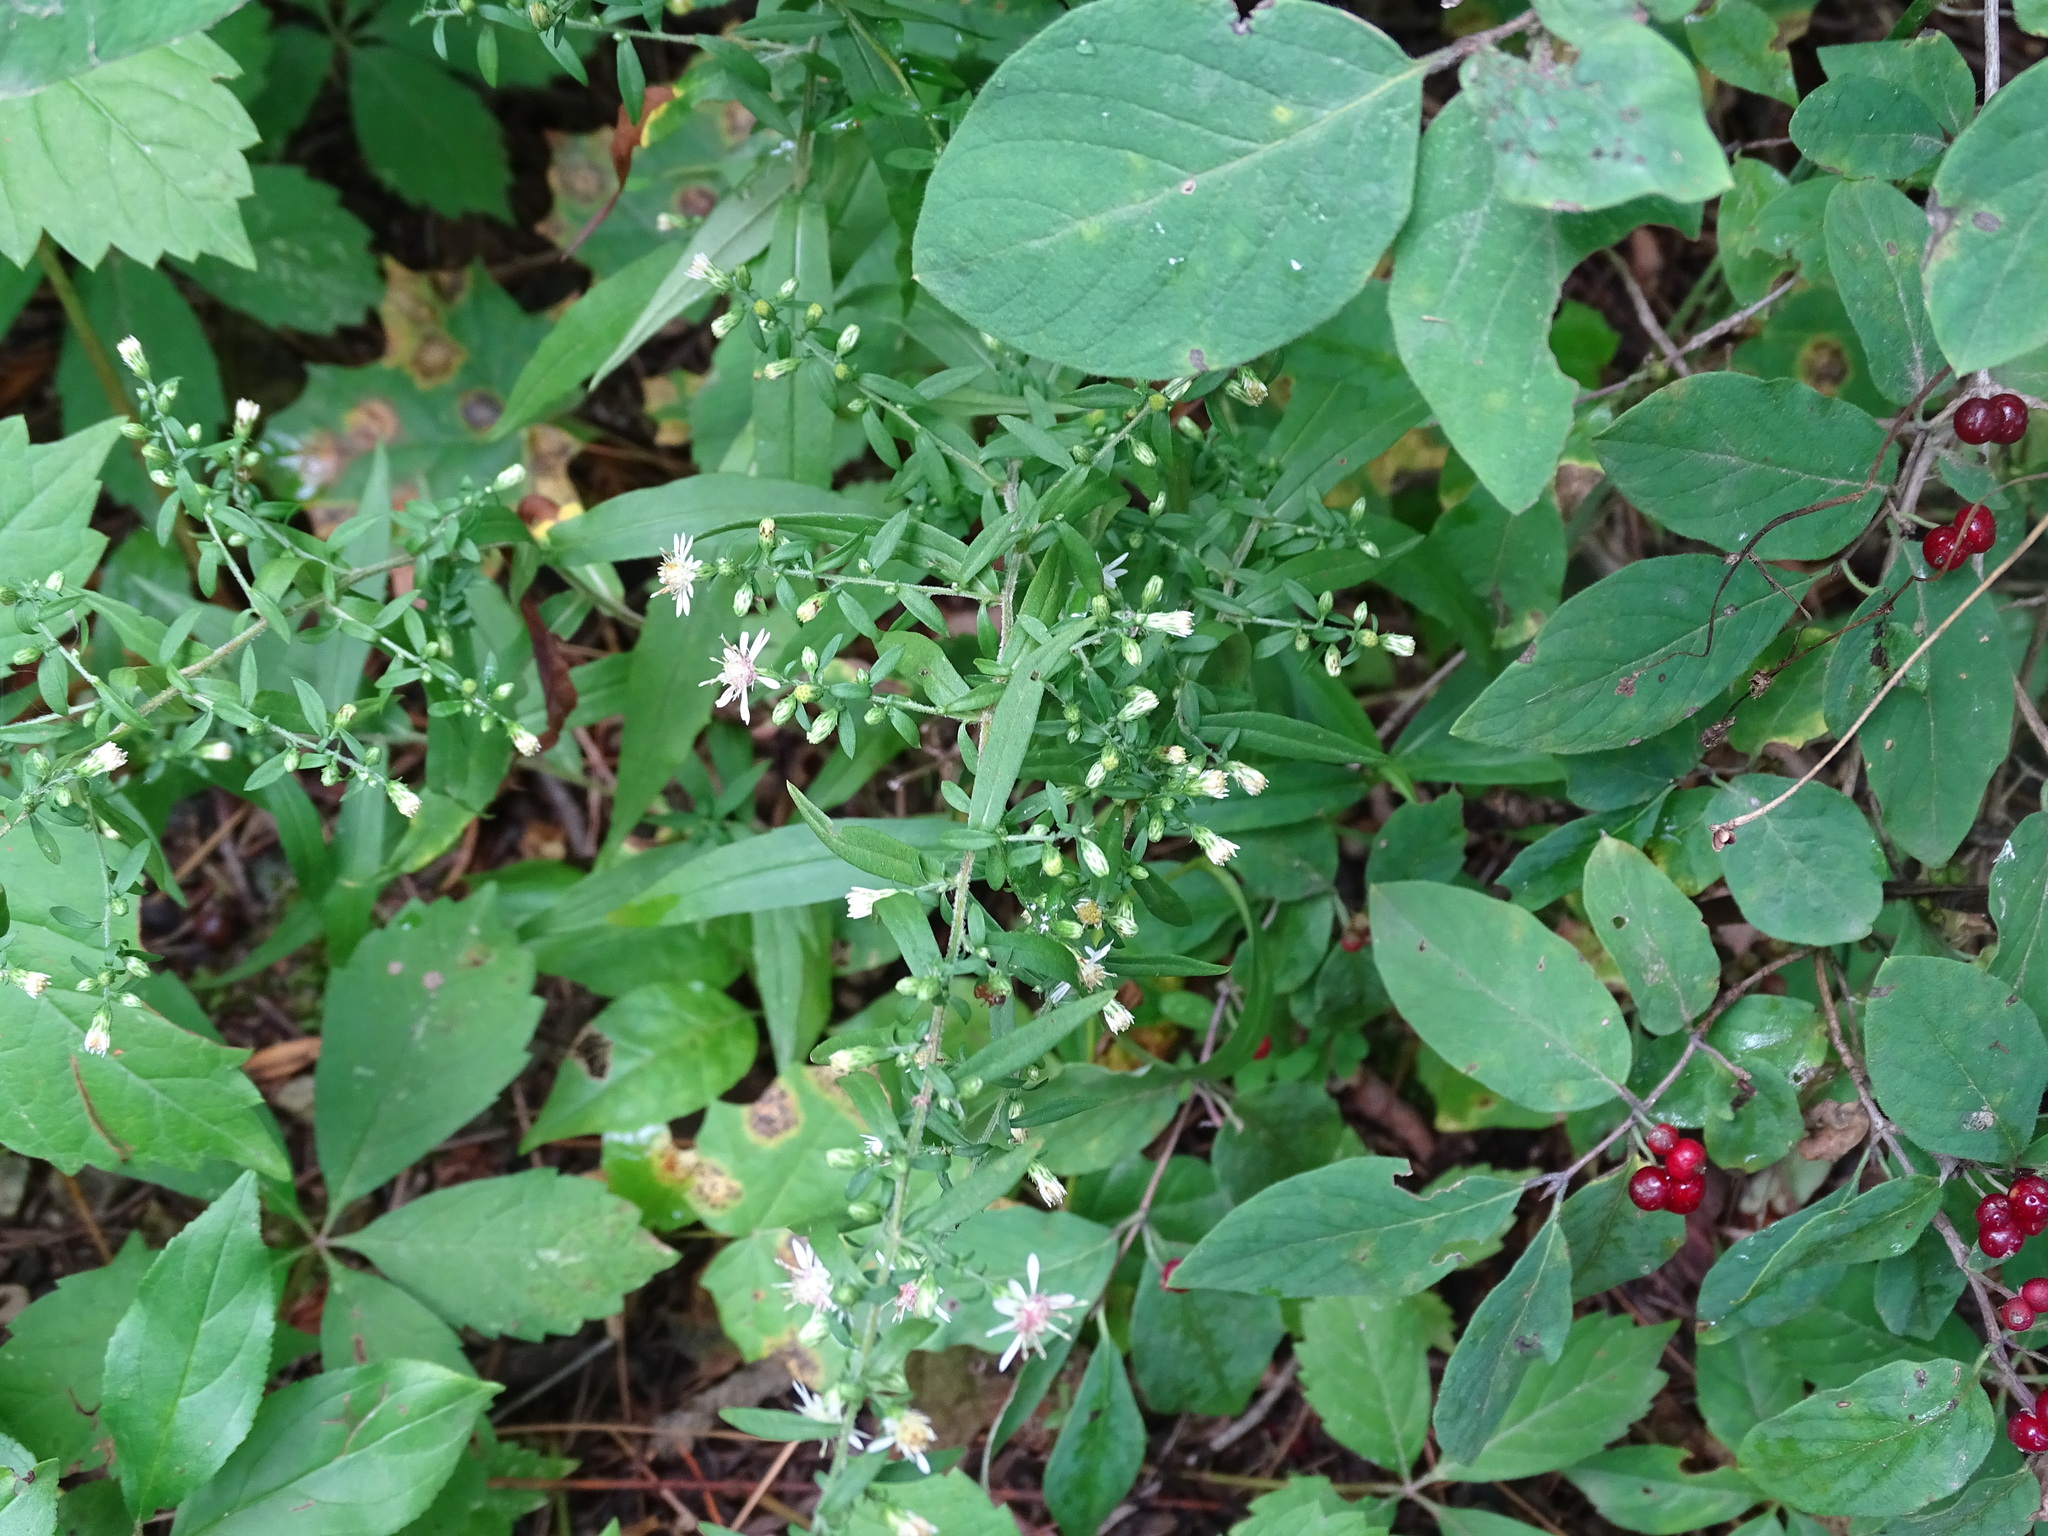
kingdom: Plantae
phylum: Tracheophyta
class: Magnoliopsida
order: Asterales
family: Asteraceae
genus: Symphyotrichum
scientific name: Symphyotrichum lateriflorum
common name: Calico aster
